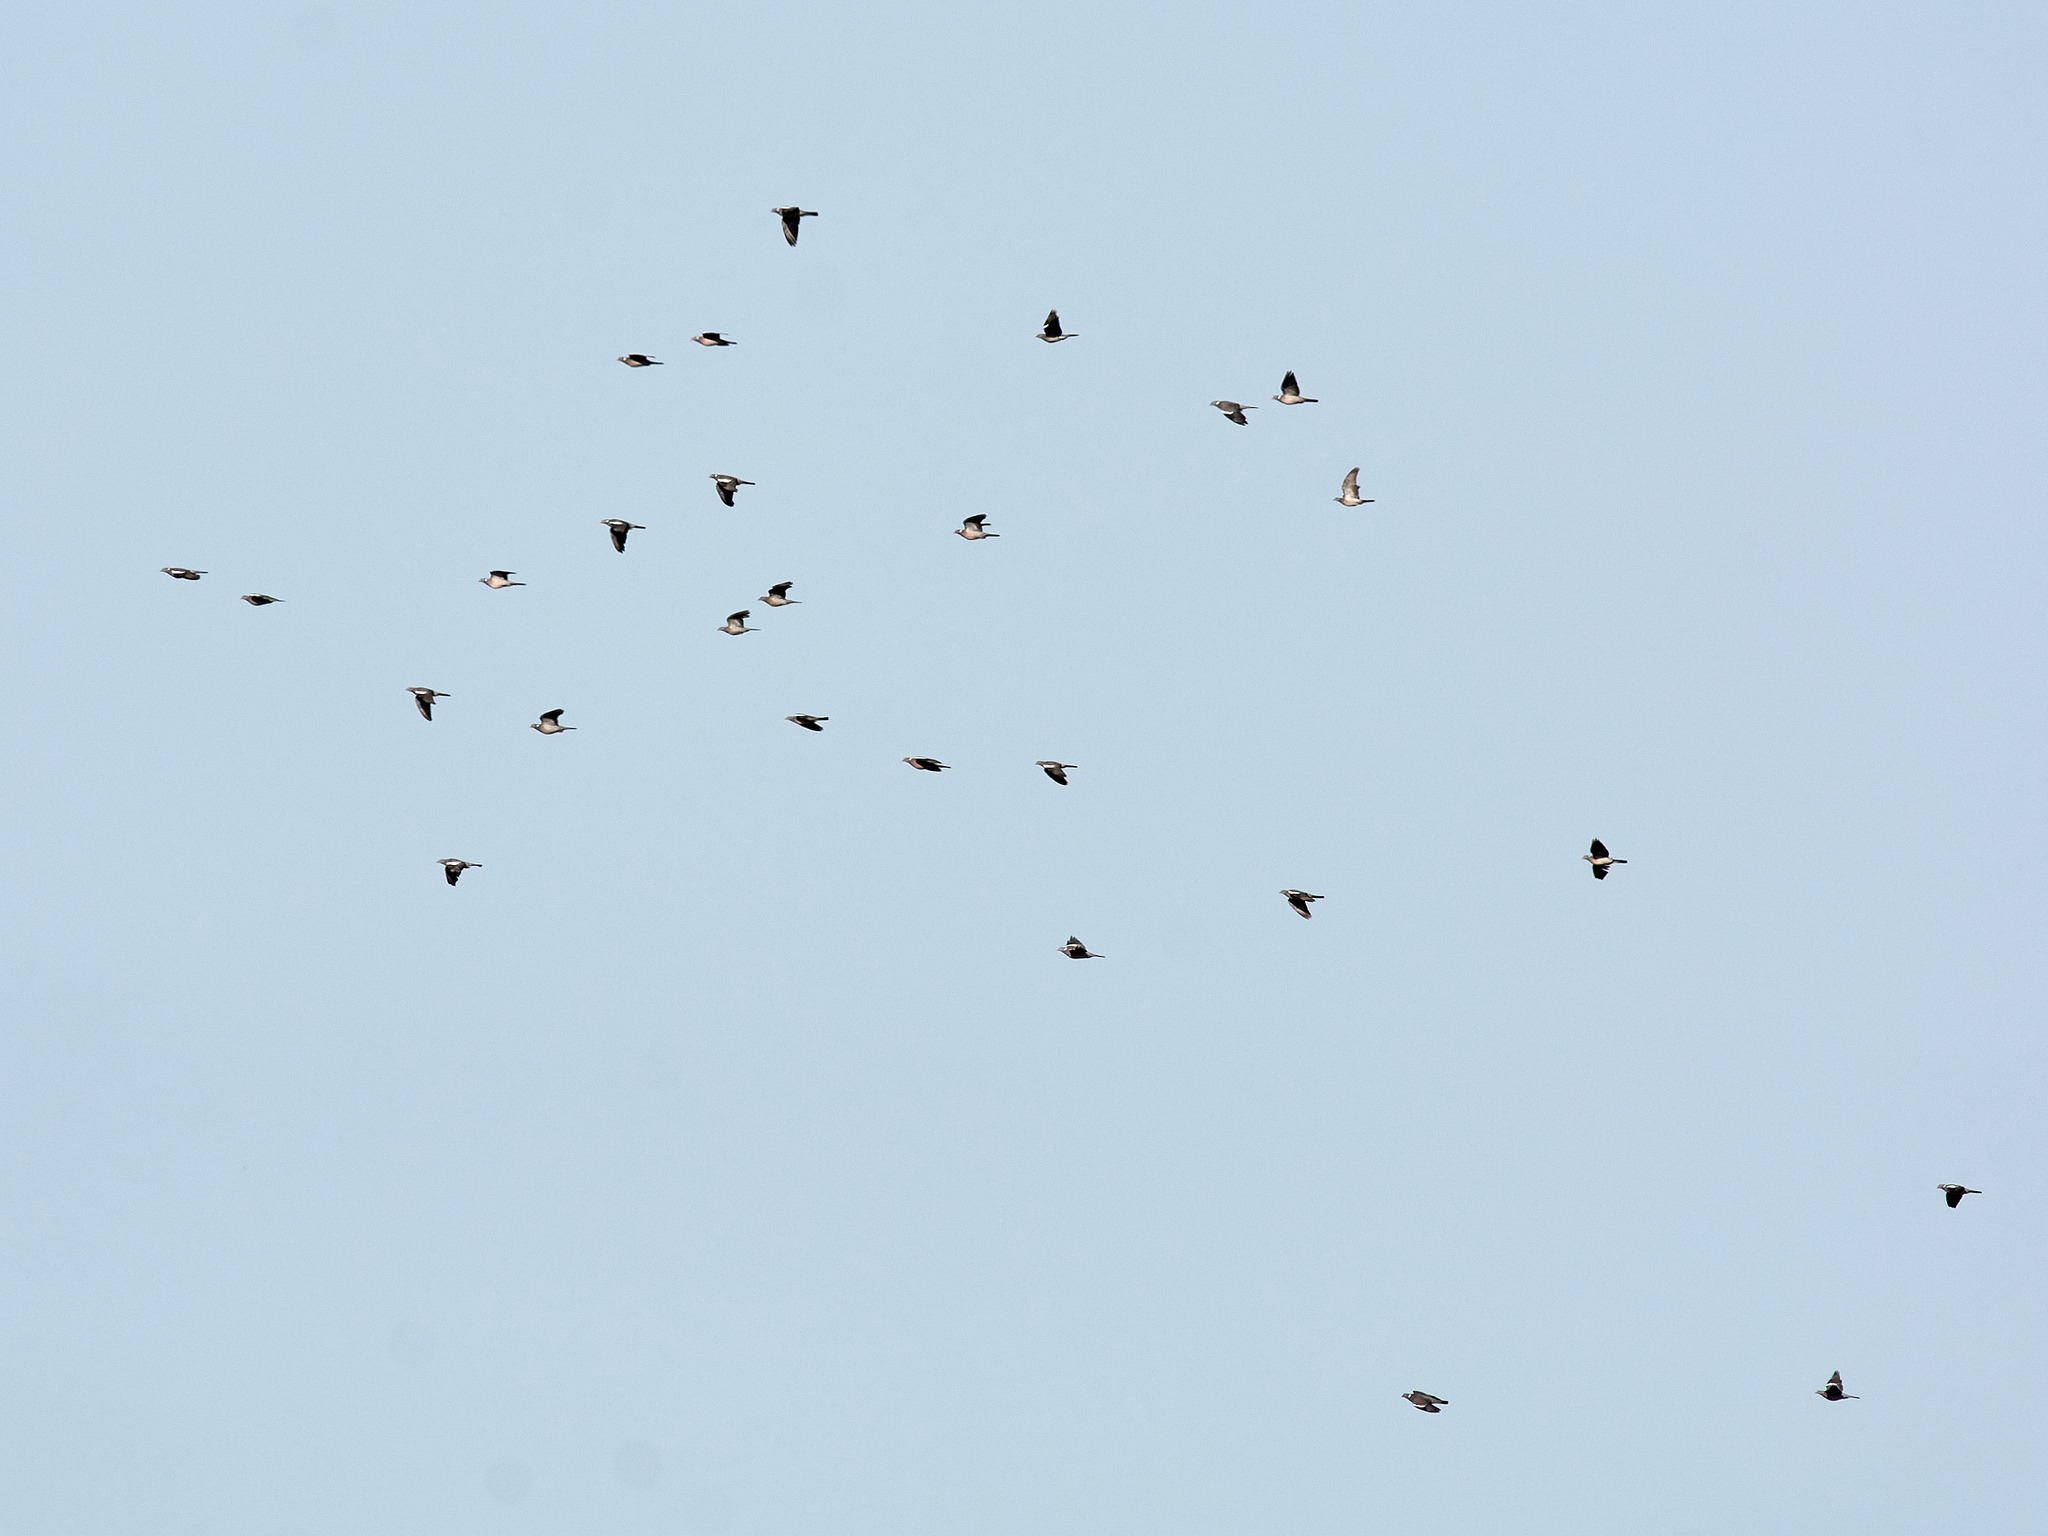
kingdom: Animalia
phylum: Chordata
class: Aves
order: Columbiformes
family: Columbidae
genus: Columba
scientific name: Columba palumbus
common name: Common wood pigeon
